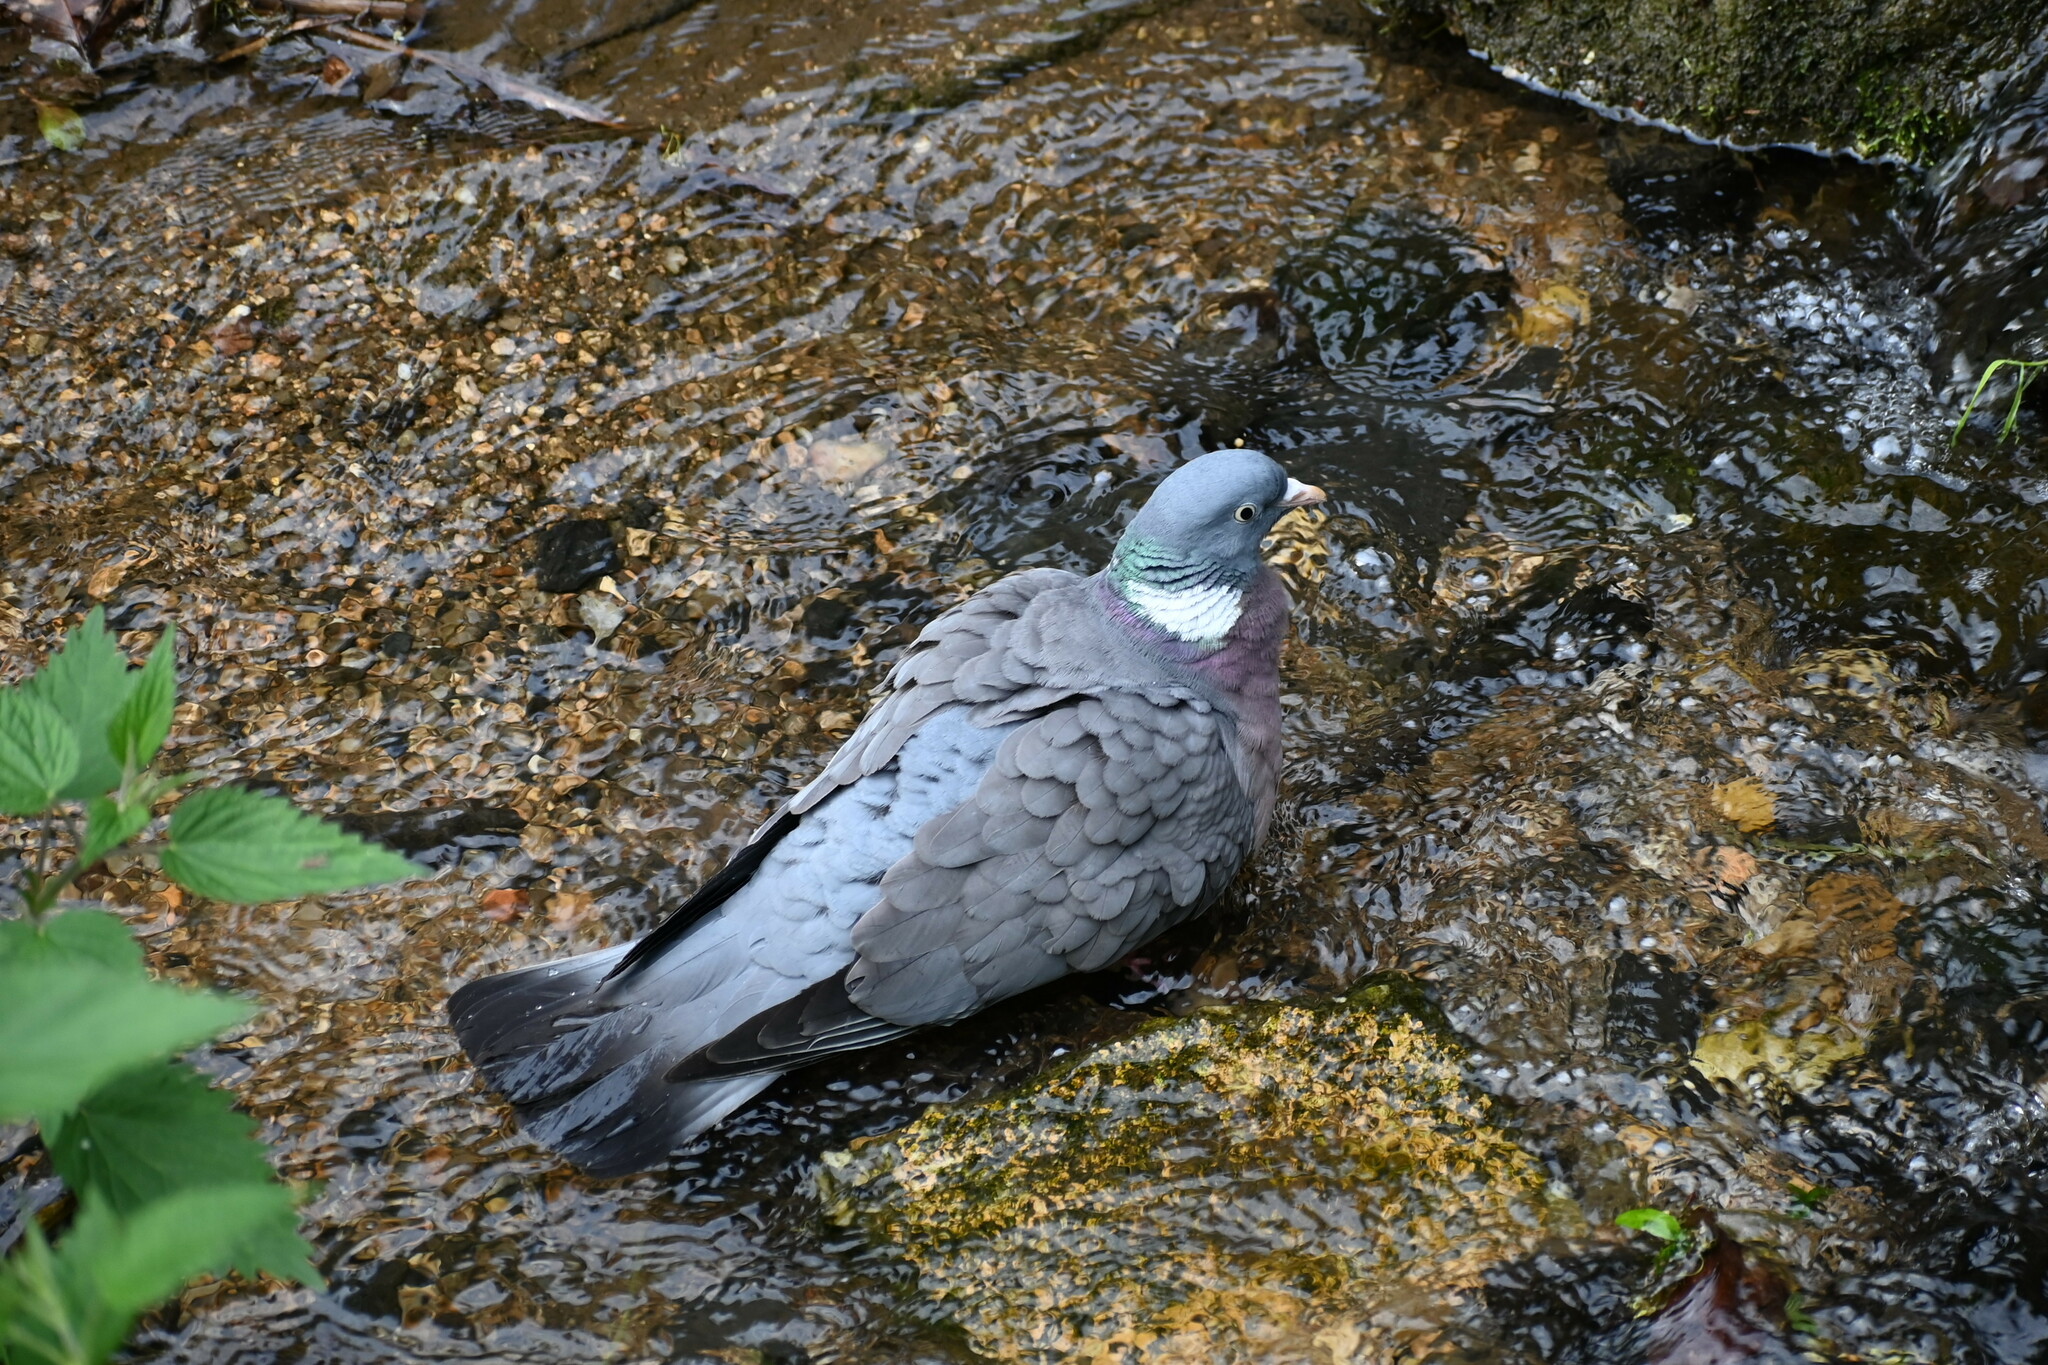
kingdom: Animalia
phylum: Chordata
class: Aves
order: Columbiformes
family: Columbidae
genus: Columba
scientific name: Columba palumbus
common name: Common wood pigeon
